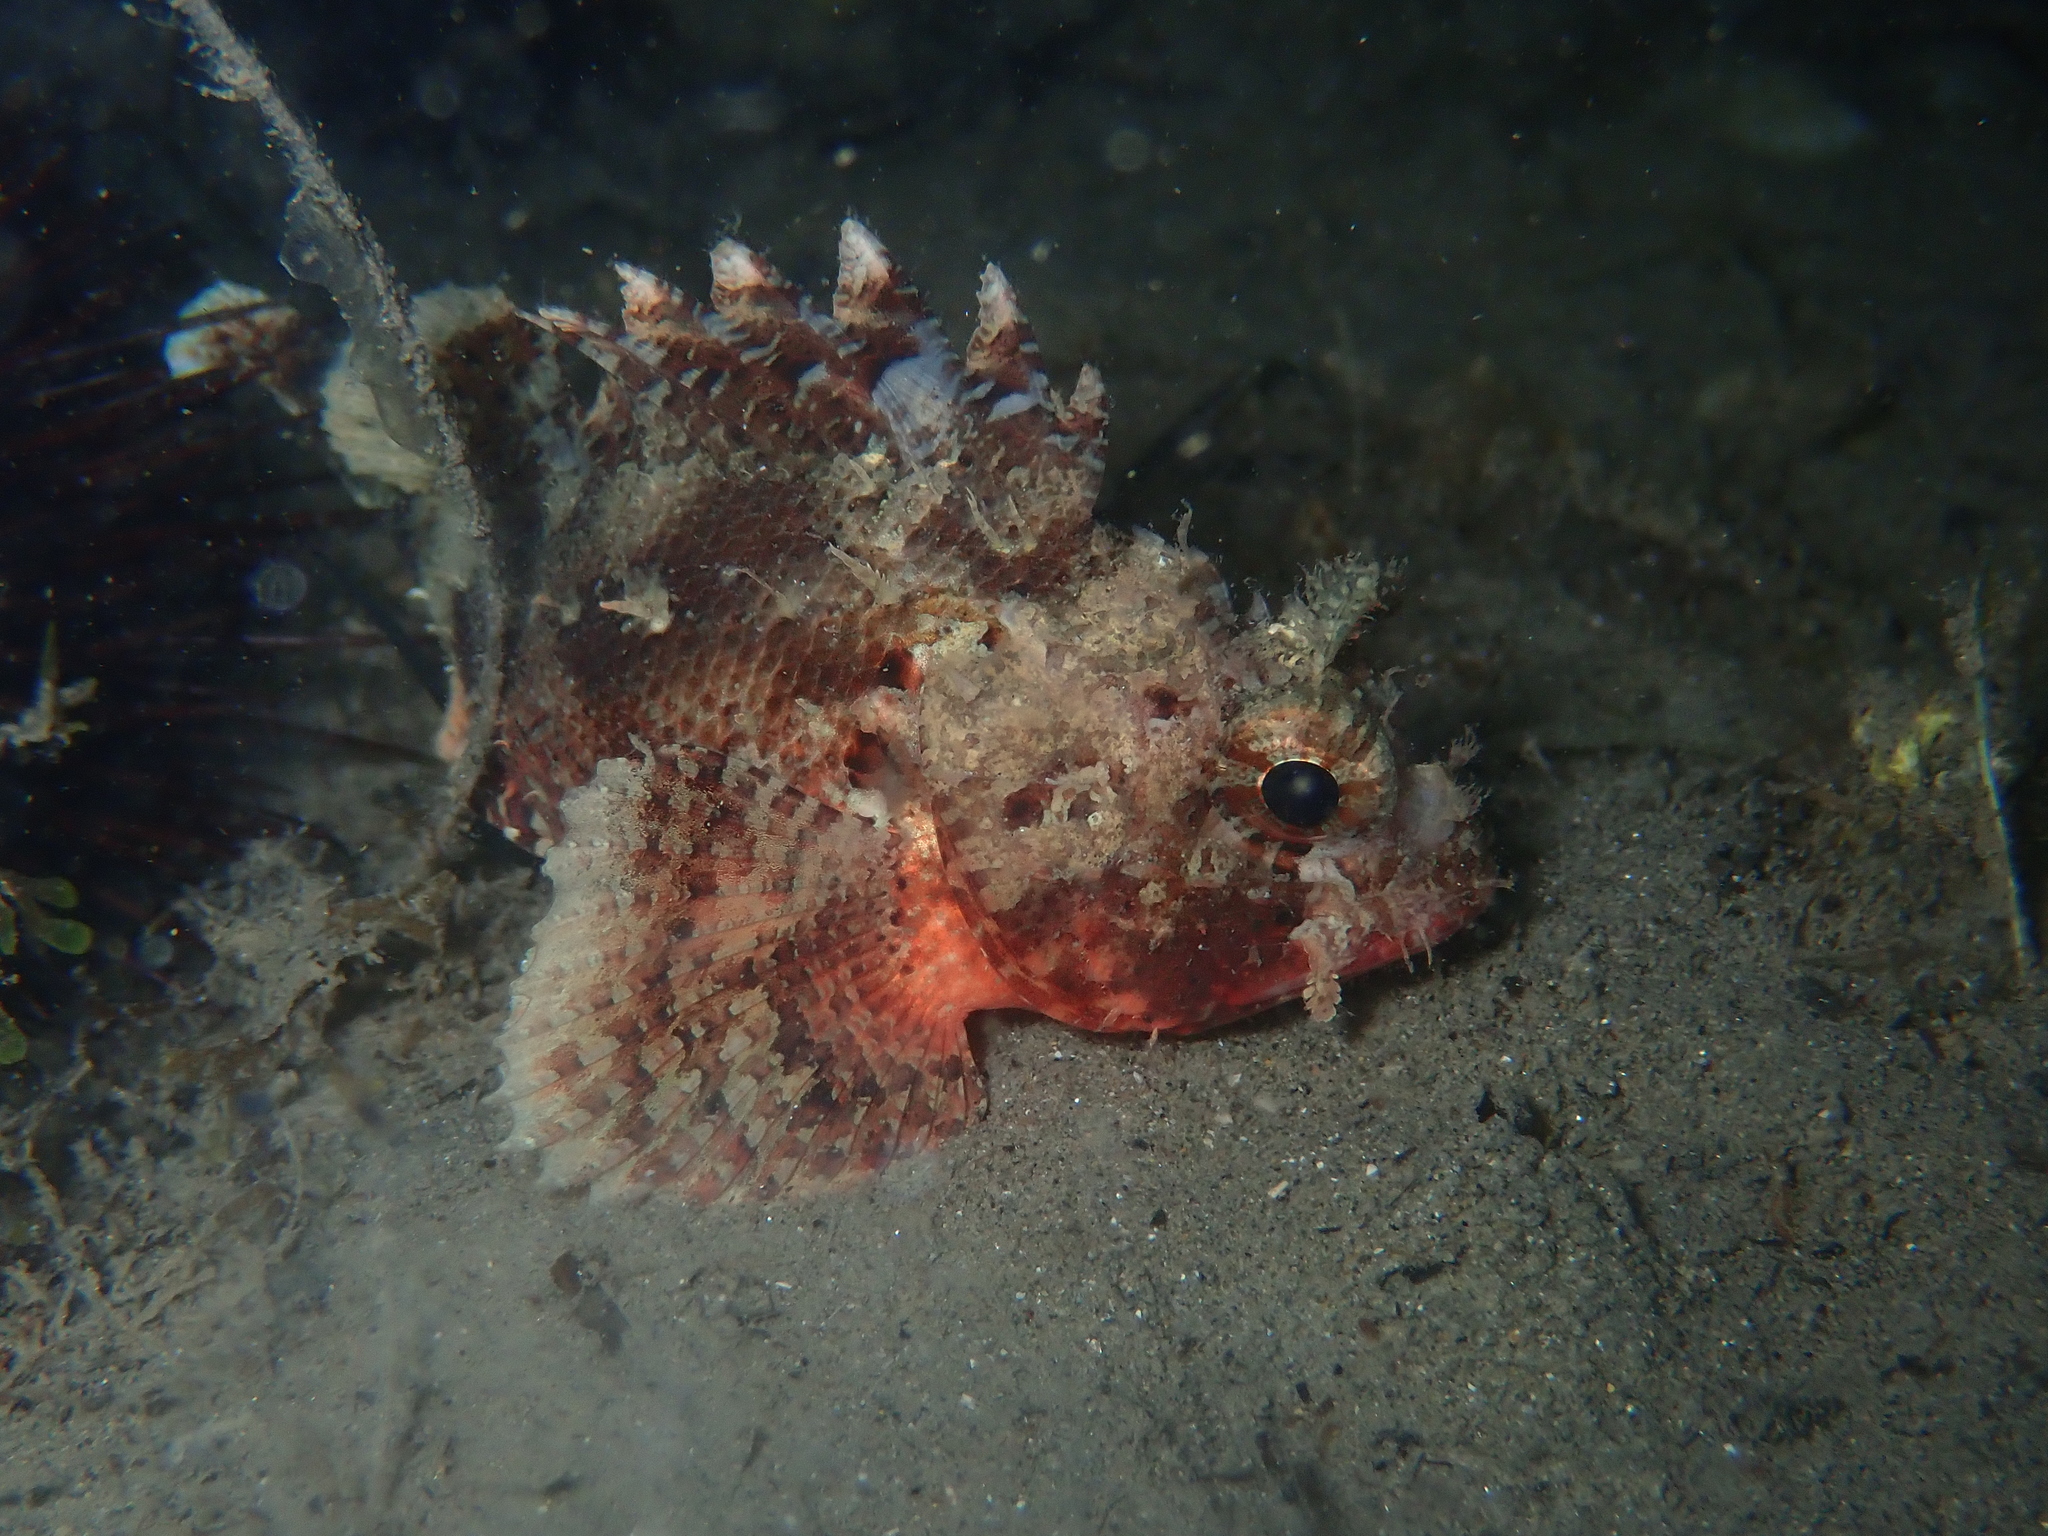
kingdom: Animalia
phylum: Chordata
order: Scorpaeniformes
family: Scorpaenidae
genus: Scorpaena
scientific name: Scorpaena notata
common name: Small red scorpionfish
